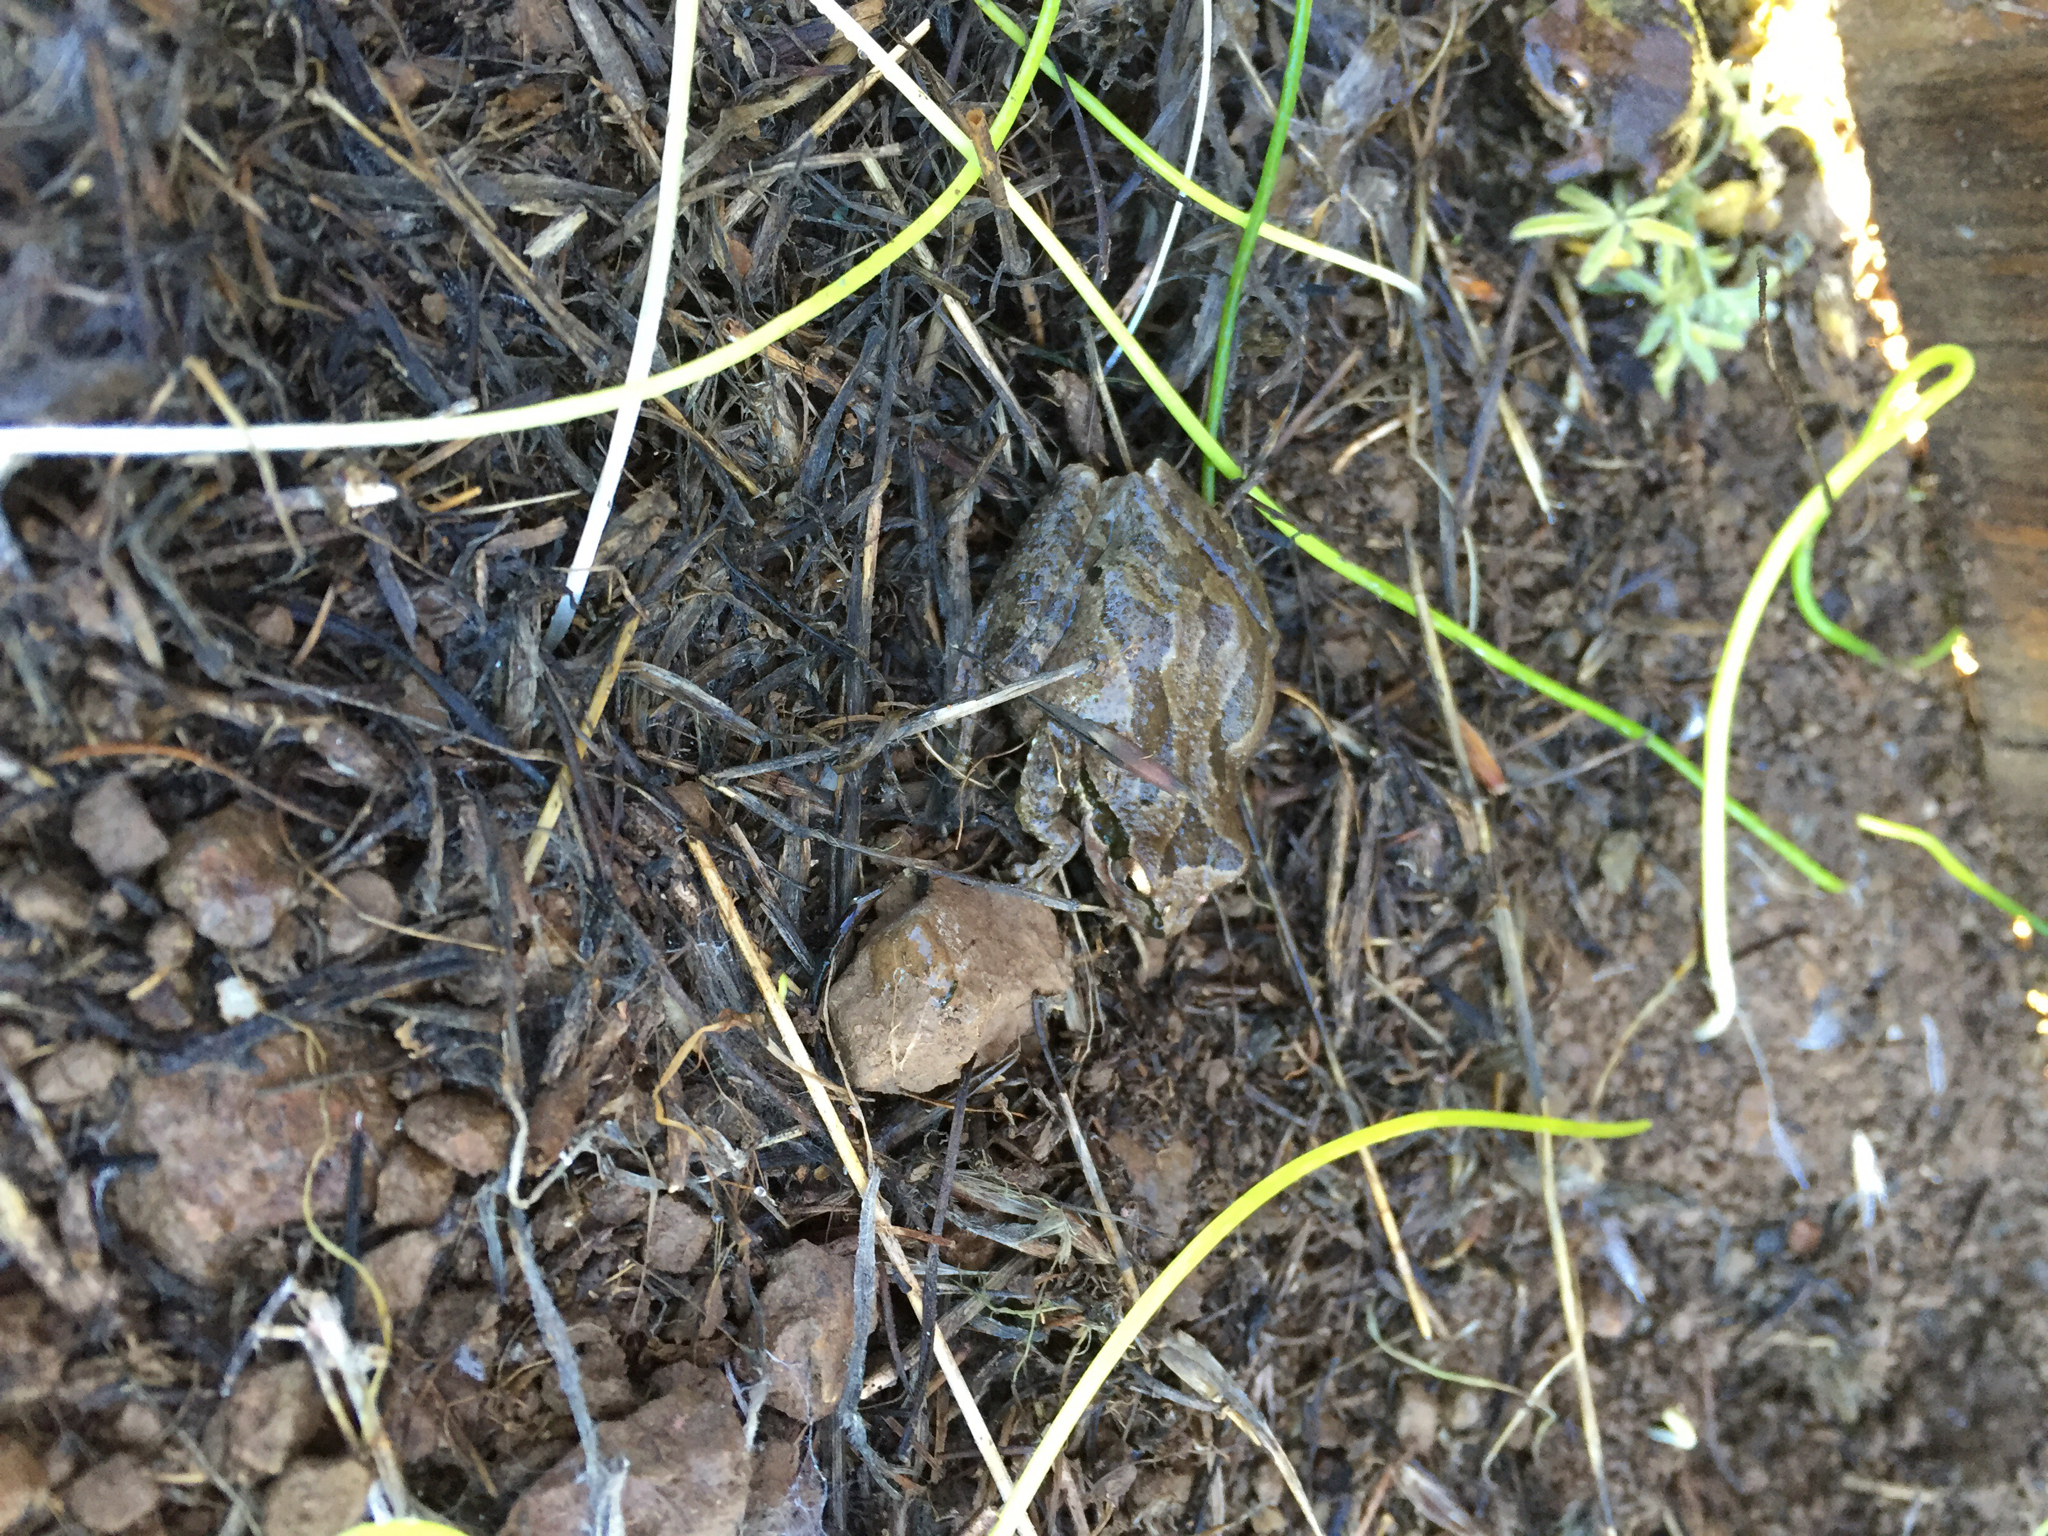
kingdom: Animalia
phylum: Chordata
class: Amphibia
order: Anura
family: Hylidae
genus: Pseudacris
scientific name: Pseudacris regilla
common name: Pacific chorus frog
